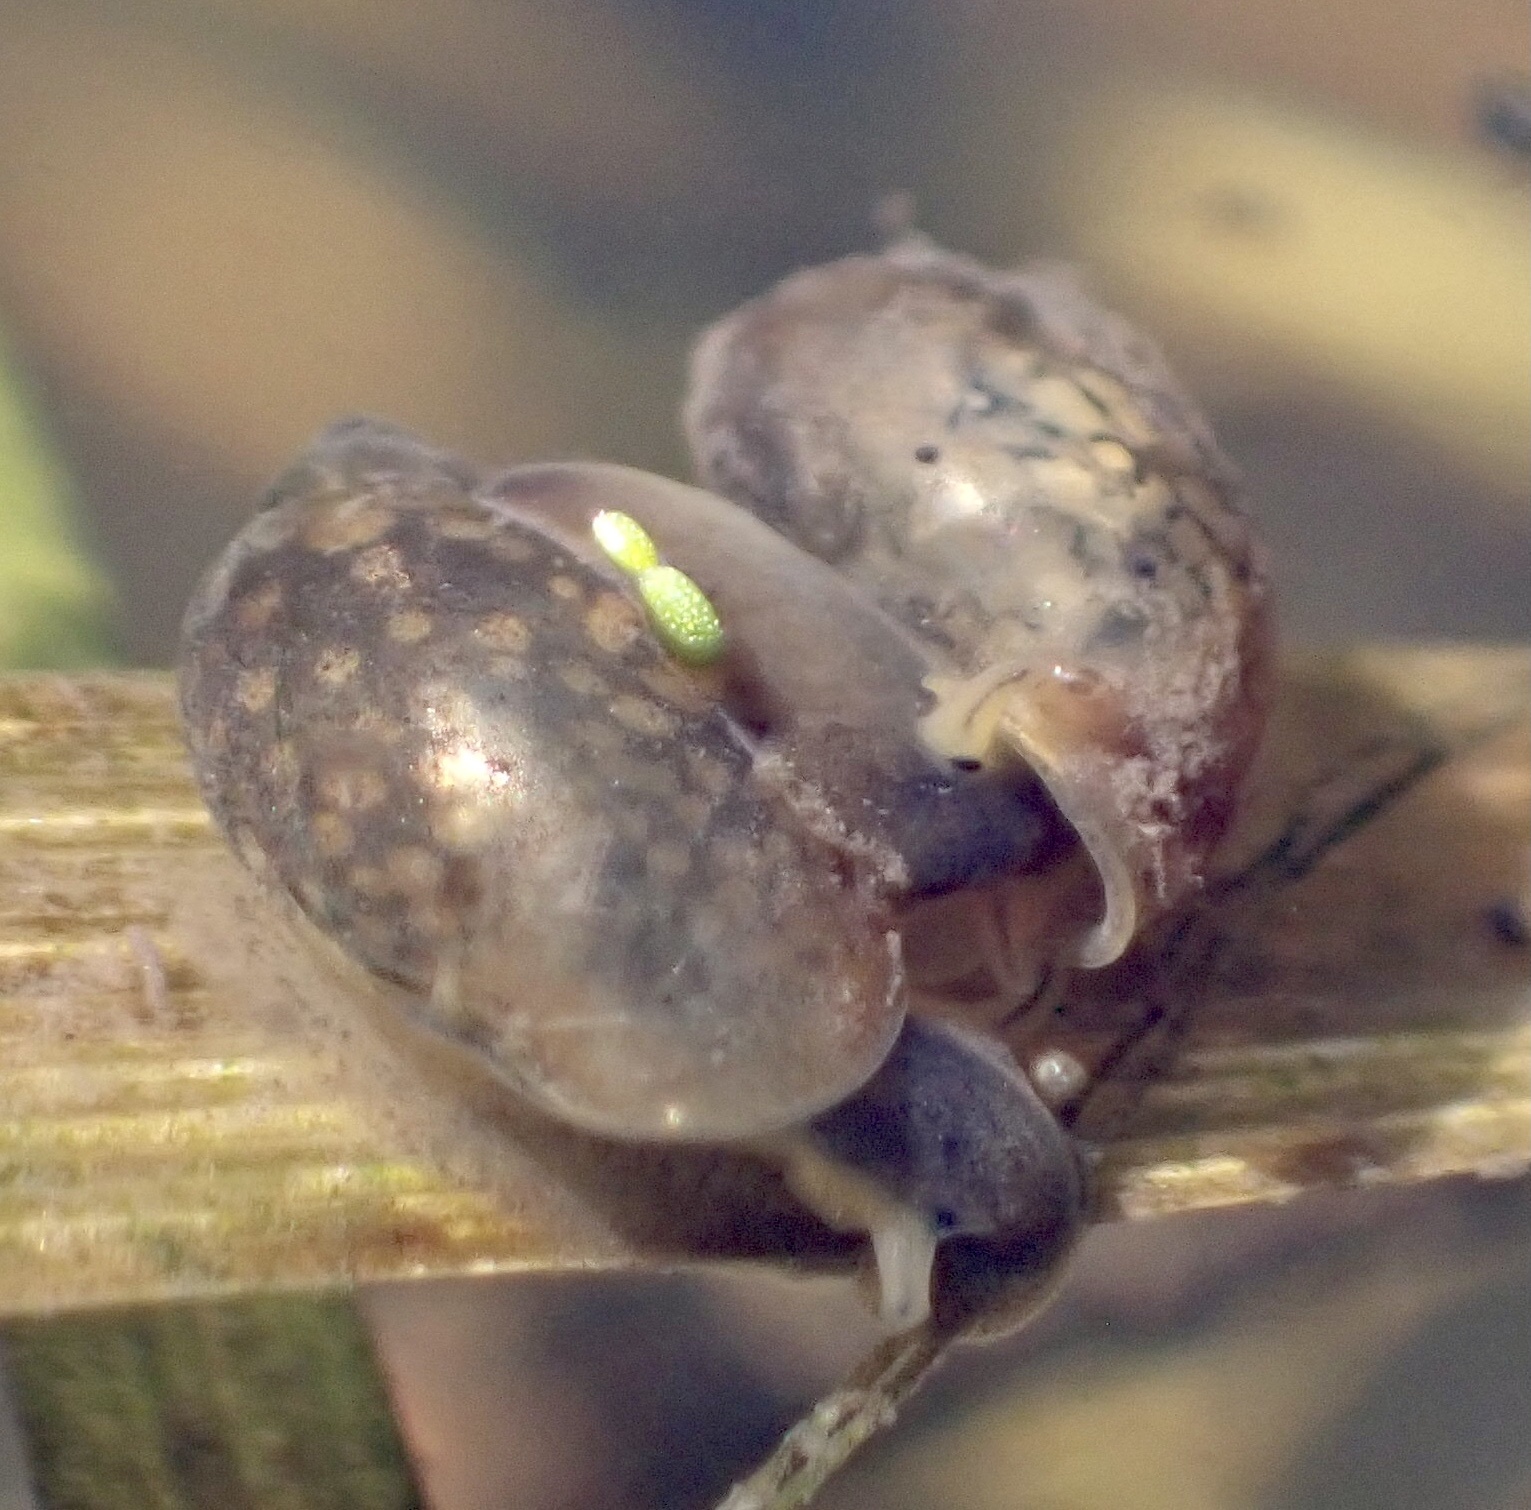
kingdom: Animalia
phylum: Mollusca
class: Gastropoda
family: Physidae
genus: Physella
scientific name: Physella acuta
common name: European physa
